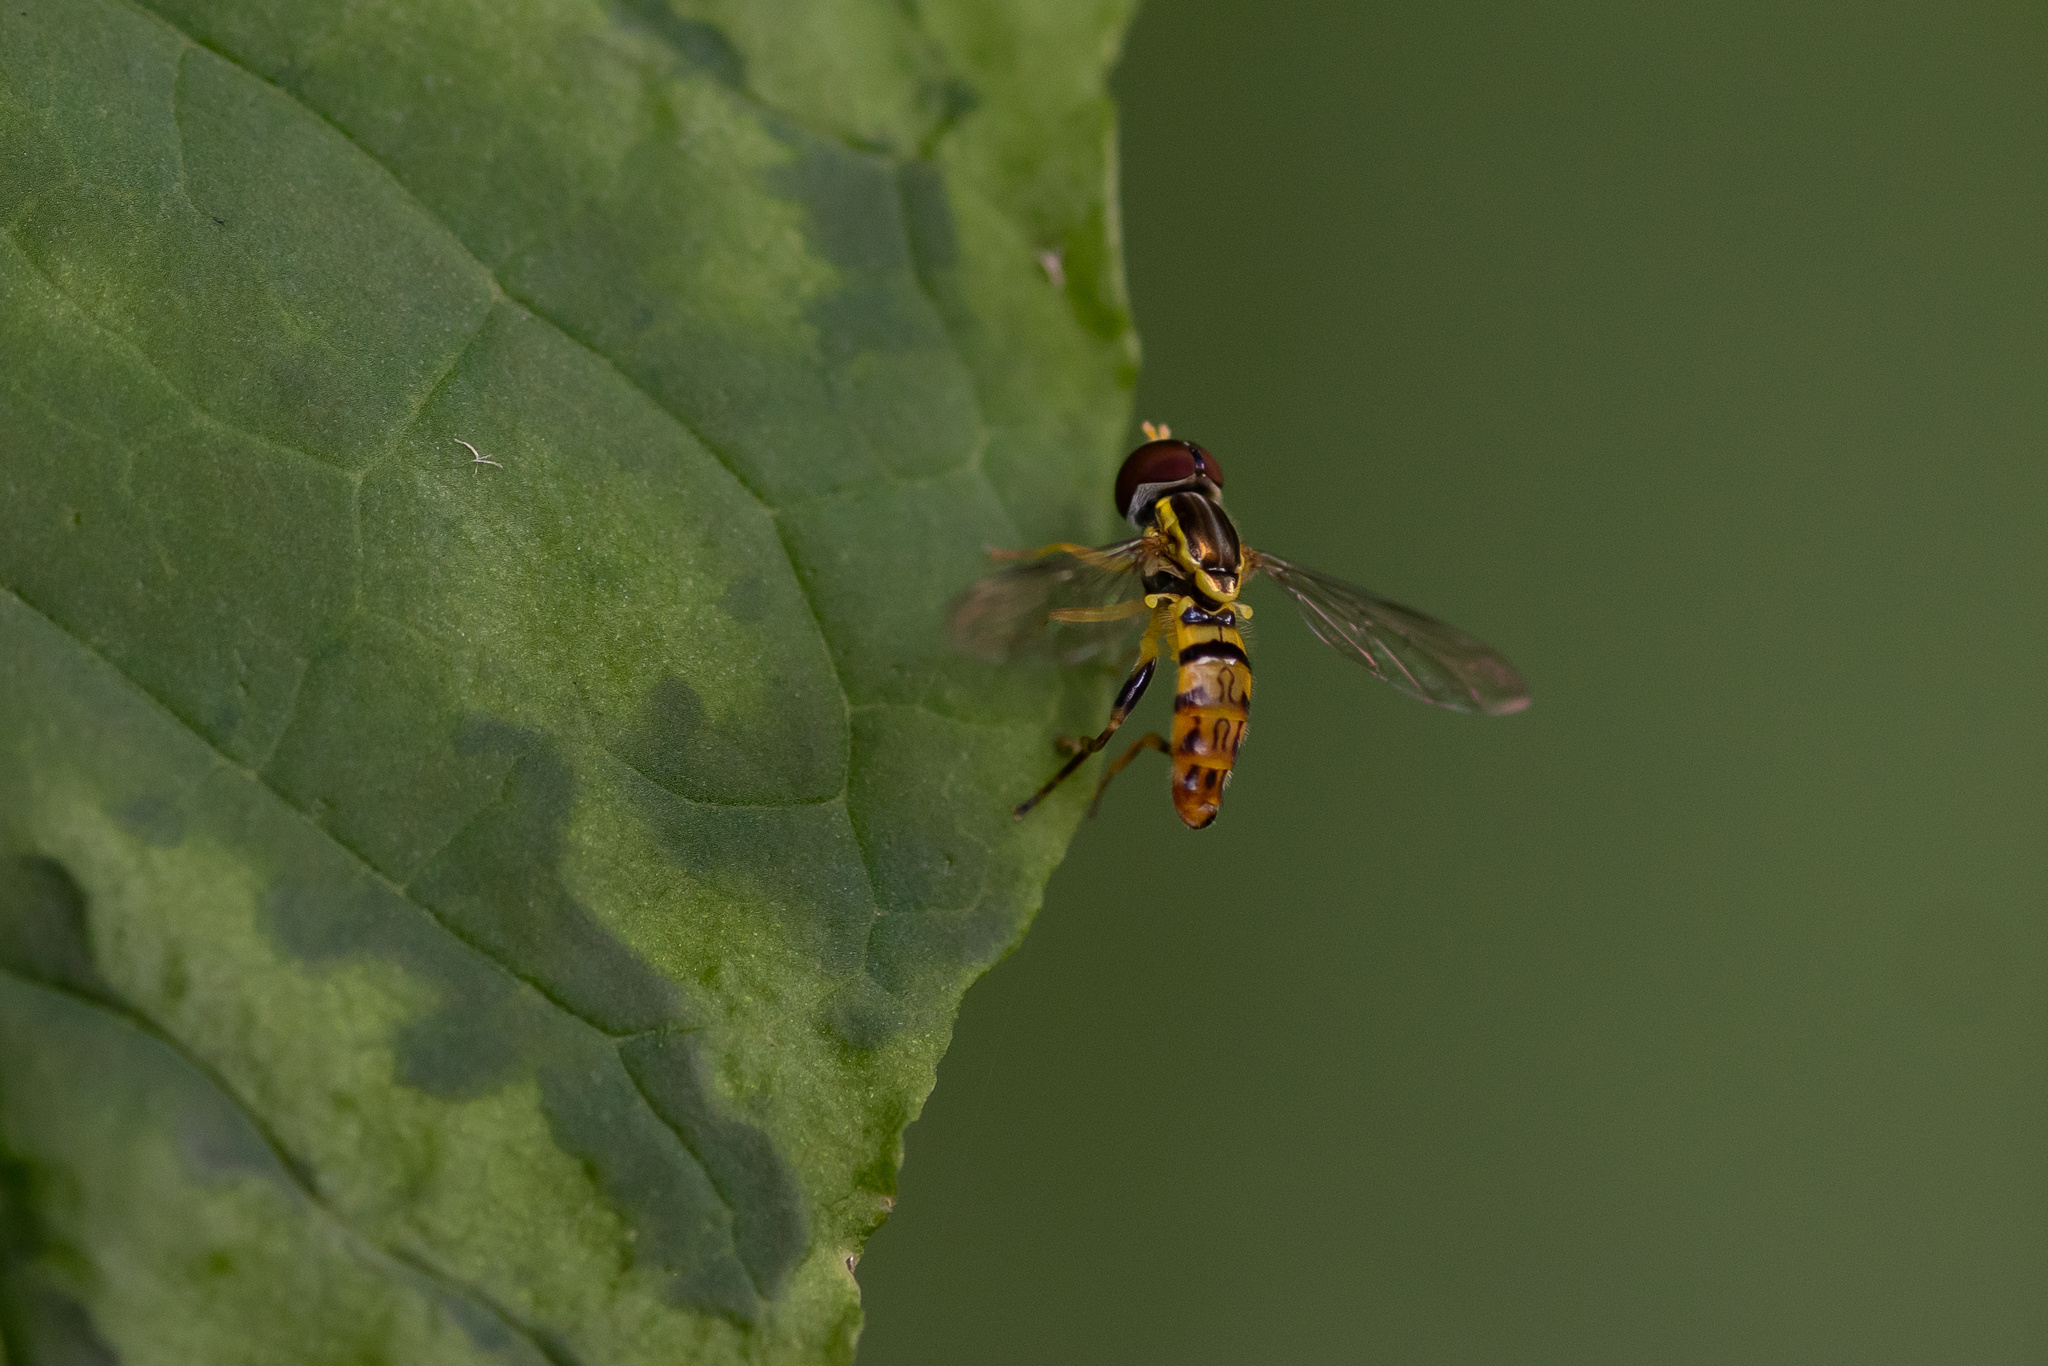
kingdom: Animalia
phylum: Arthropoda
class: Insecta
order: Diptera
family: Syrphidae
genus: Toxomerus
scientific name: Toxomerus geminatus
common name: Eastern calligrapher
